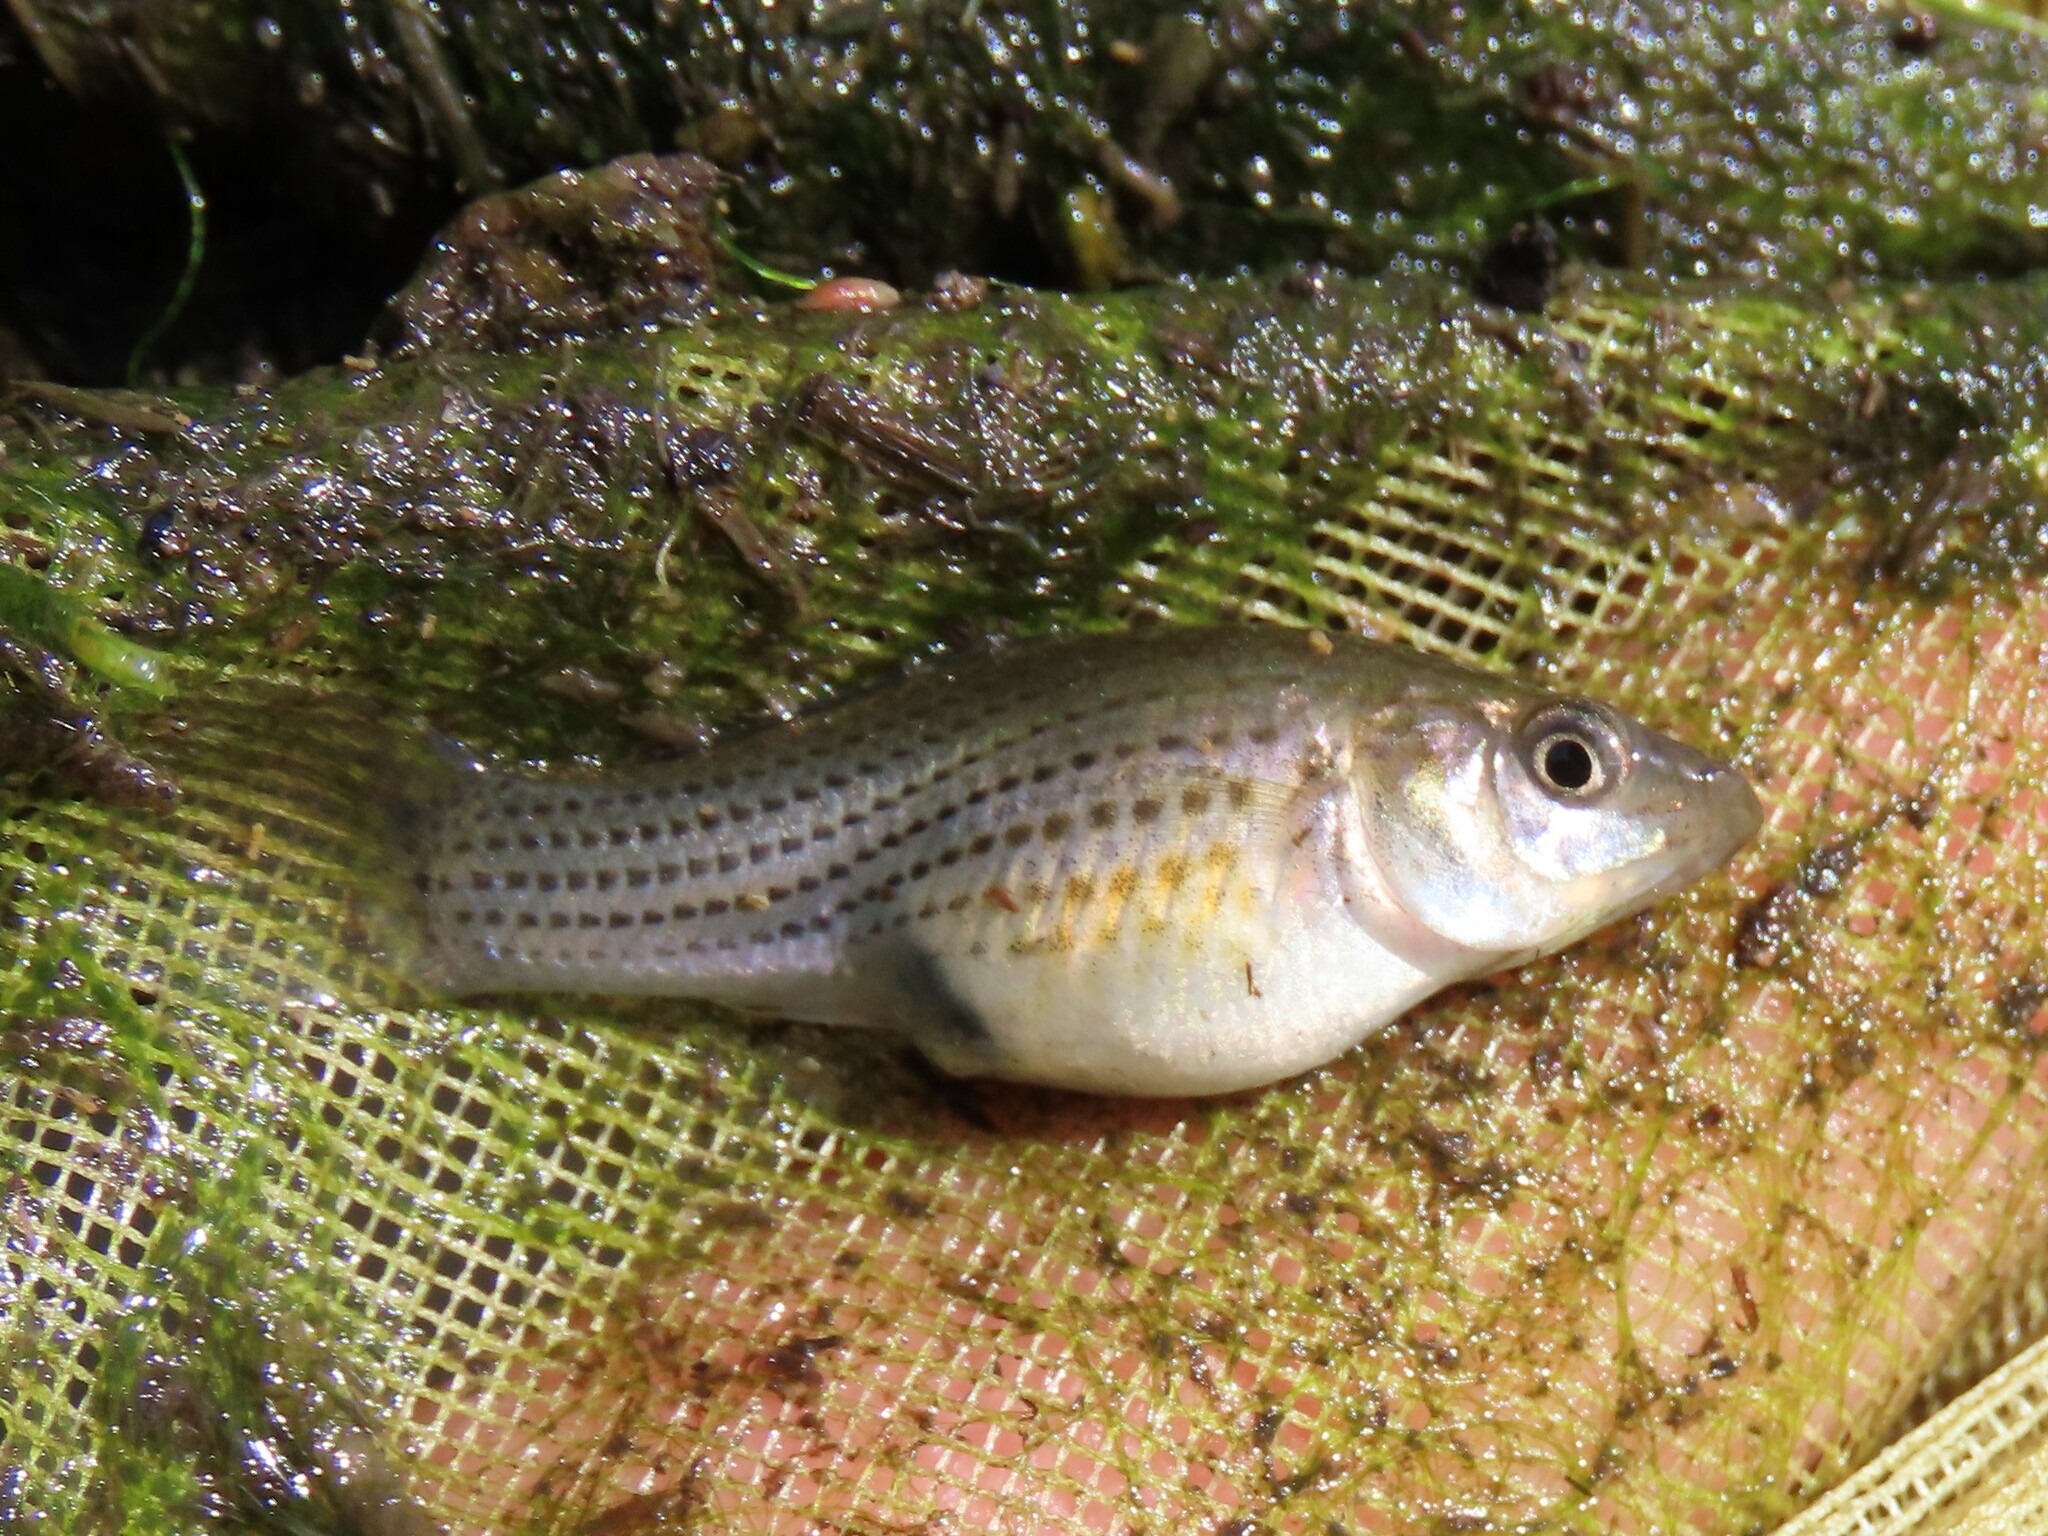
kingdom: Animalia
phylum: Chordata
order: Cyprinodontiformes
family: Poeciliidae
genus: Poecilia
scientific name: Poecilia latipinna
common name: Sailfin molly
